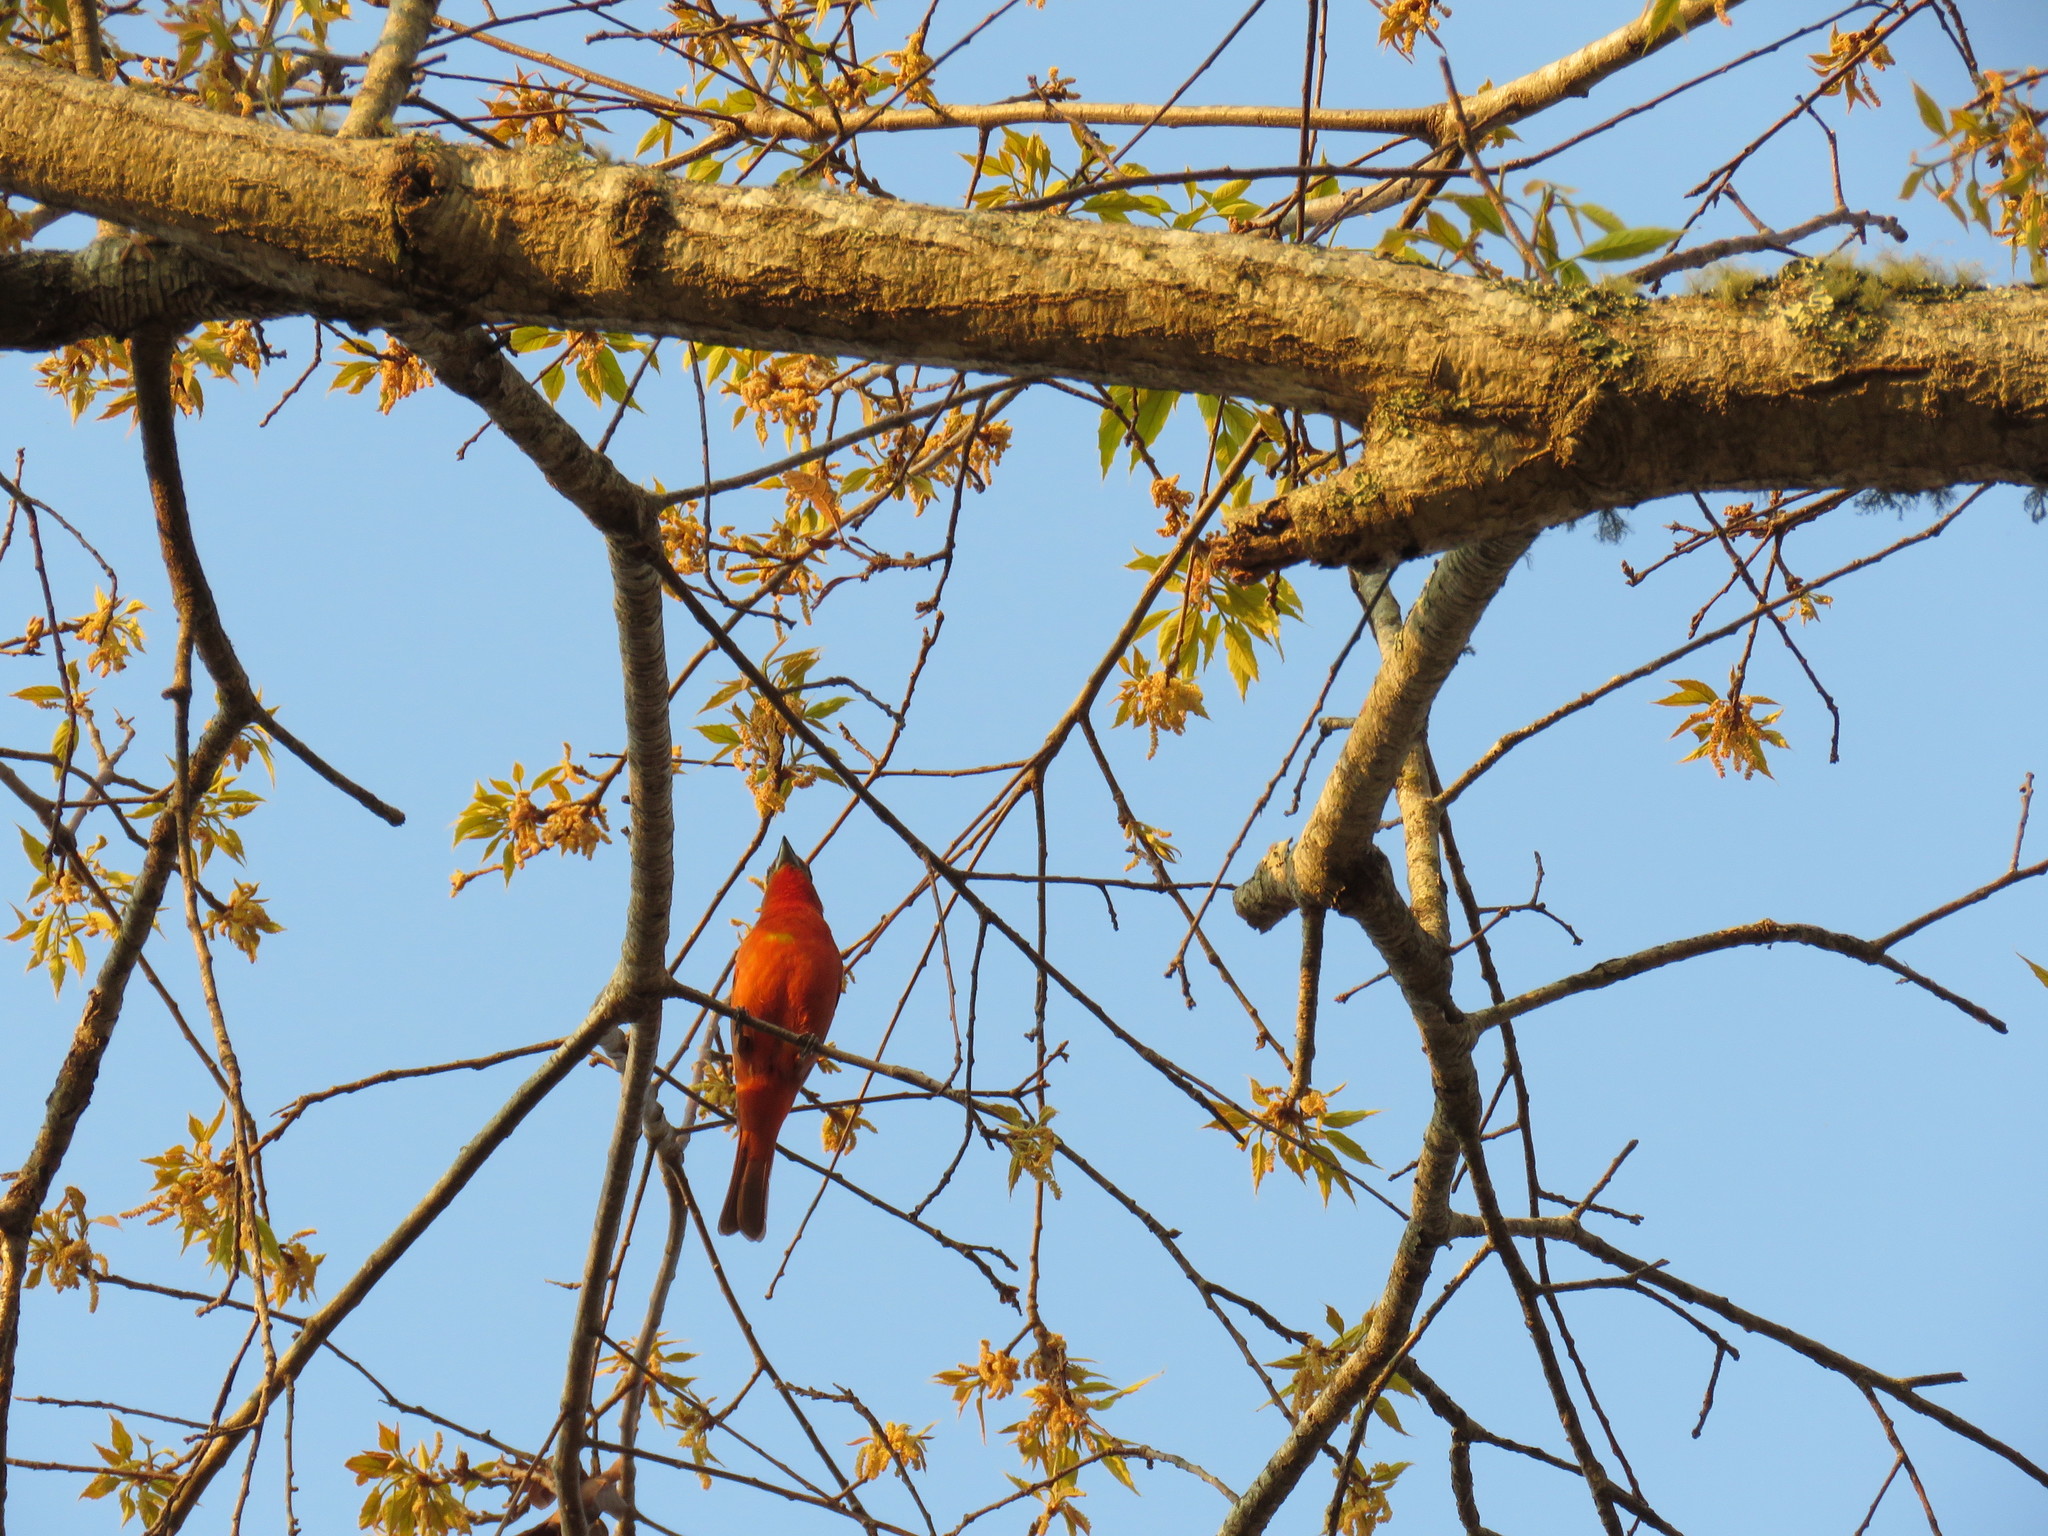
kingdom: Animalia
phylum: Chordata
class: Aves
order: Passeriformes
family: Cardinalidae
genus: Piranga
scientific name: Piranga flava
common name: Red tanager
